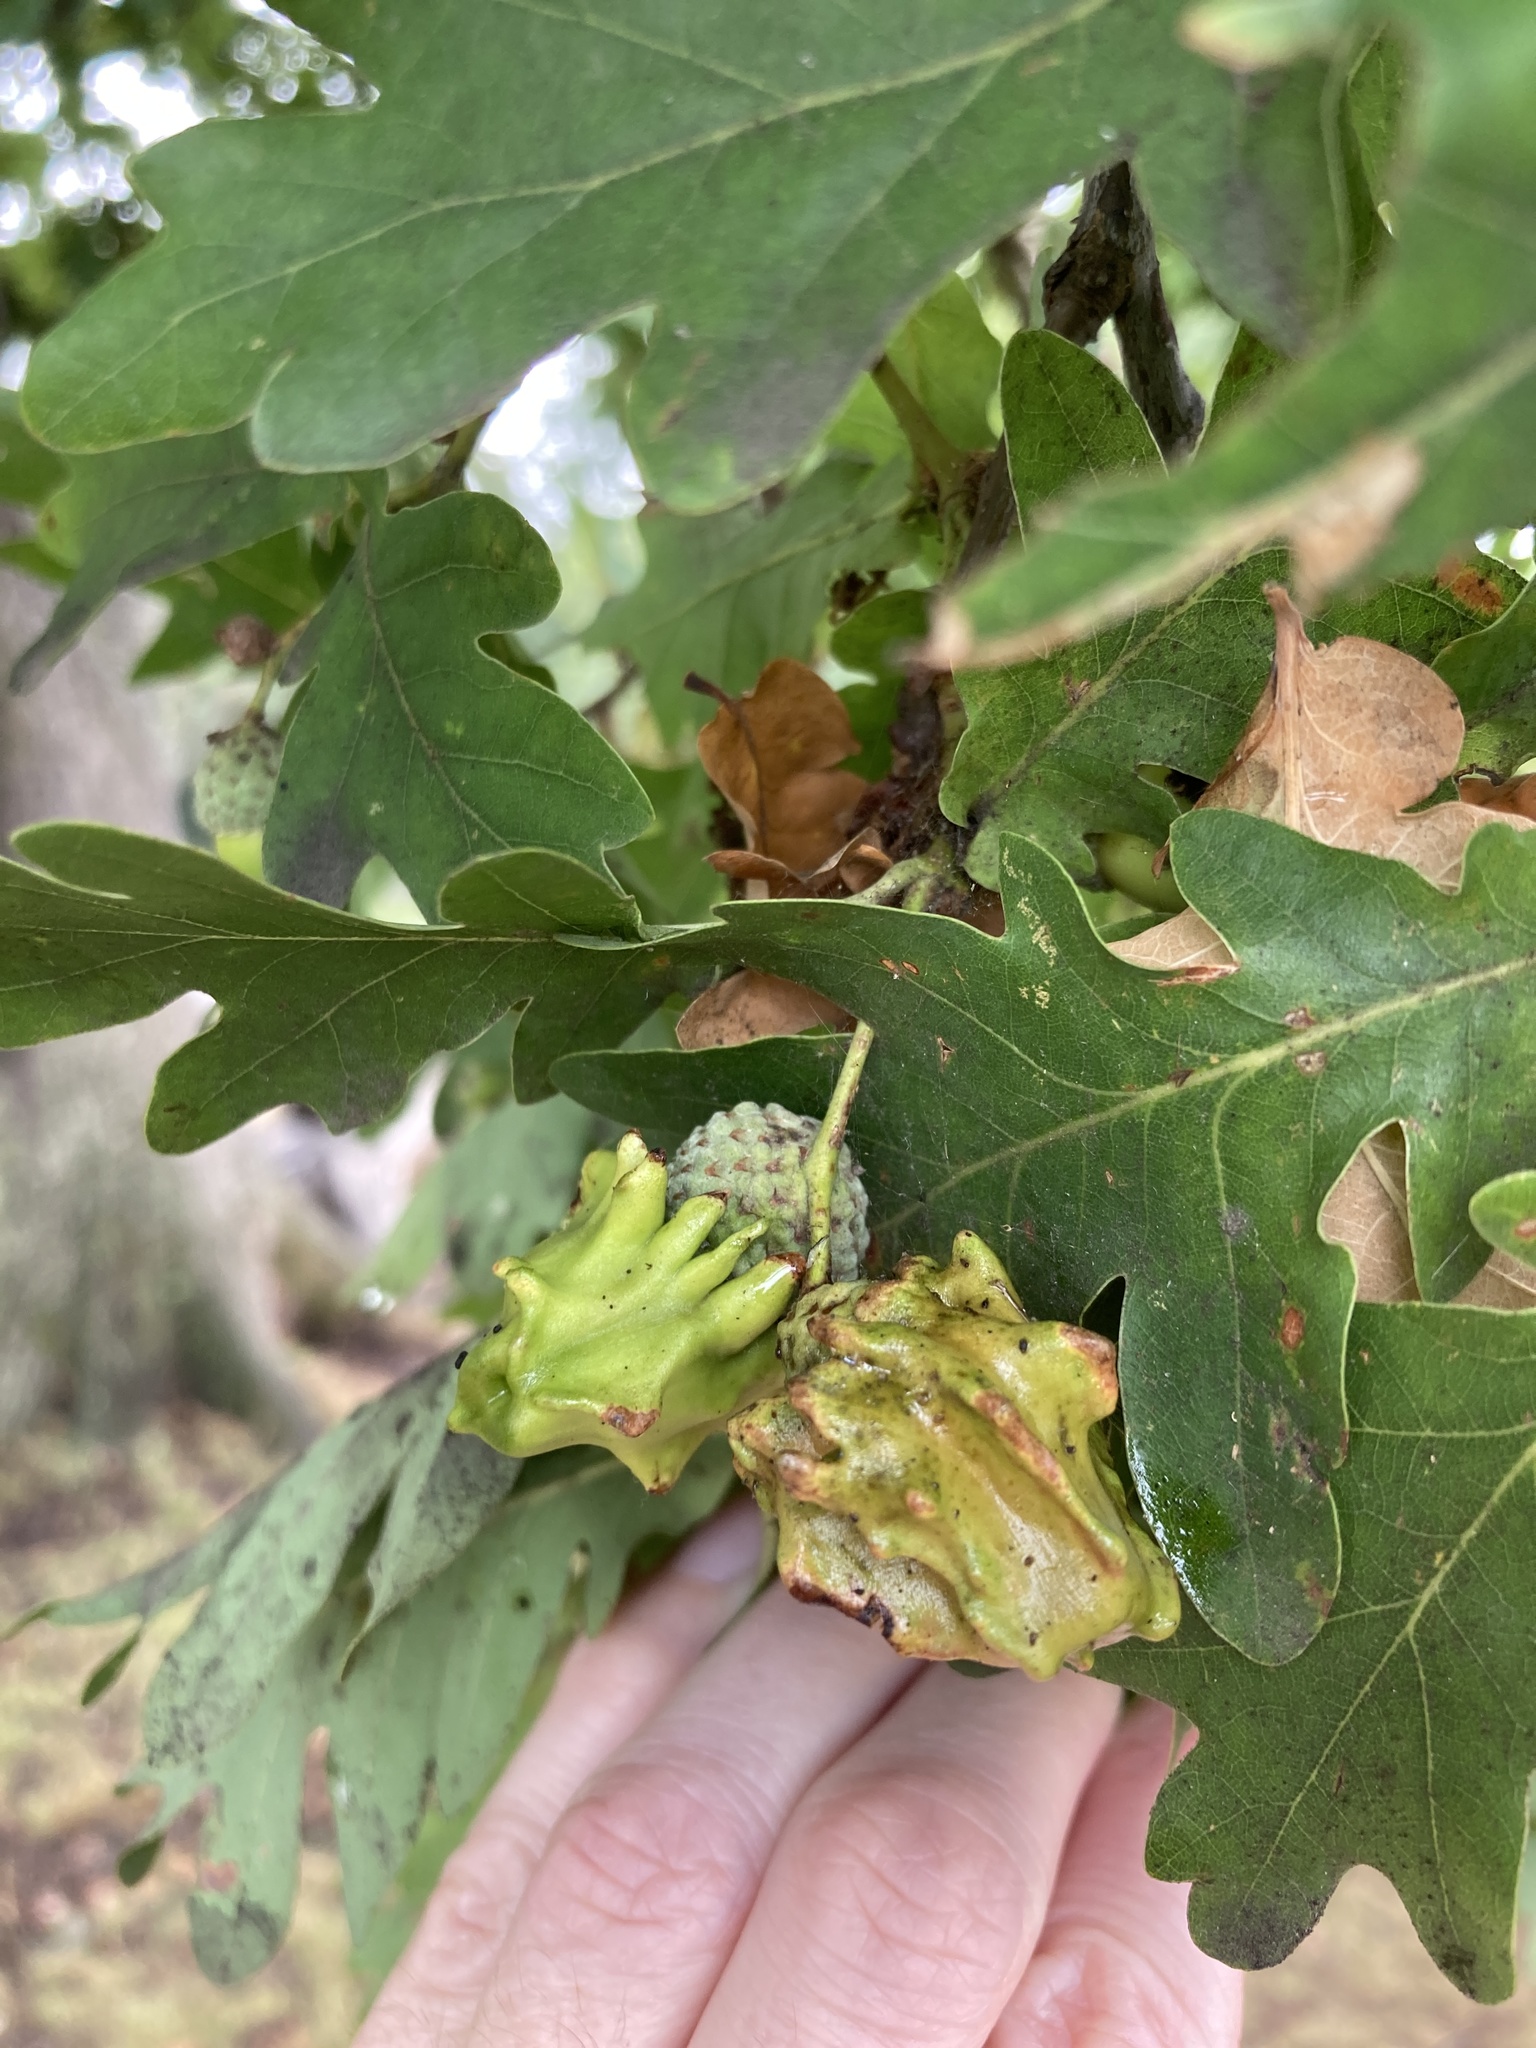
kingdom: Animalia
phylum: Arthropoda
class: Insecta
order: Hymenoptera
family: Cynipidae
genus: Andricus
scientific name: Andricus quercuscalicis
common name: Knopper gall
